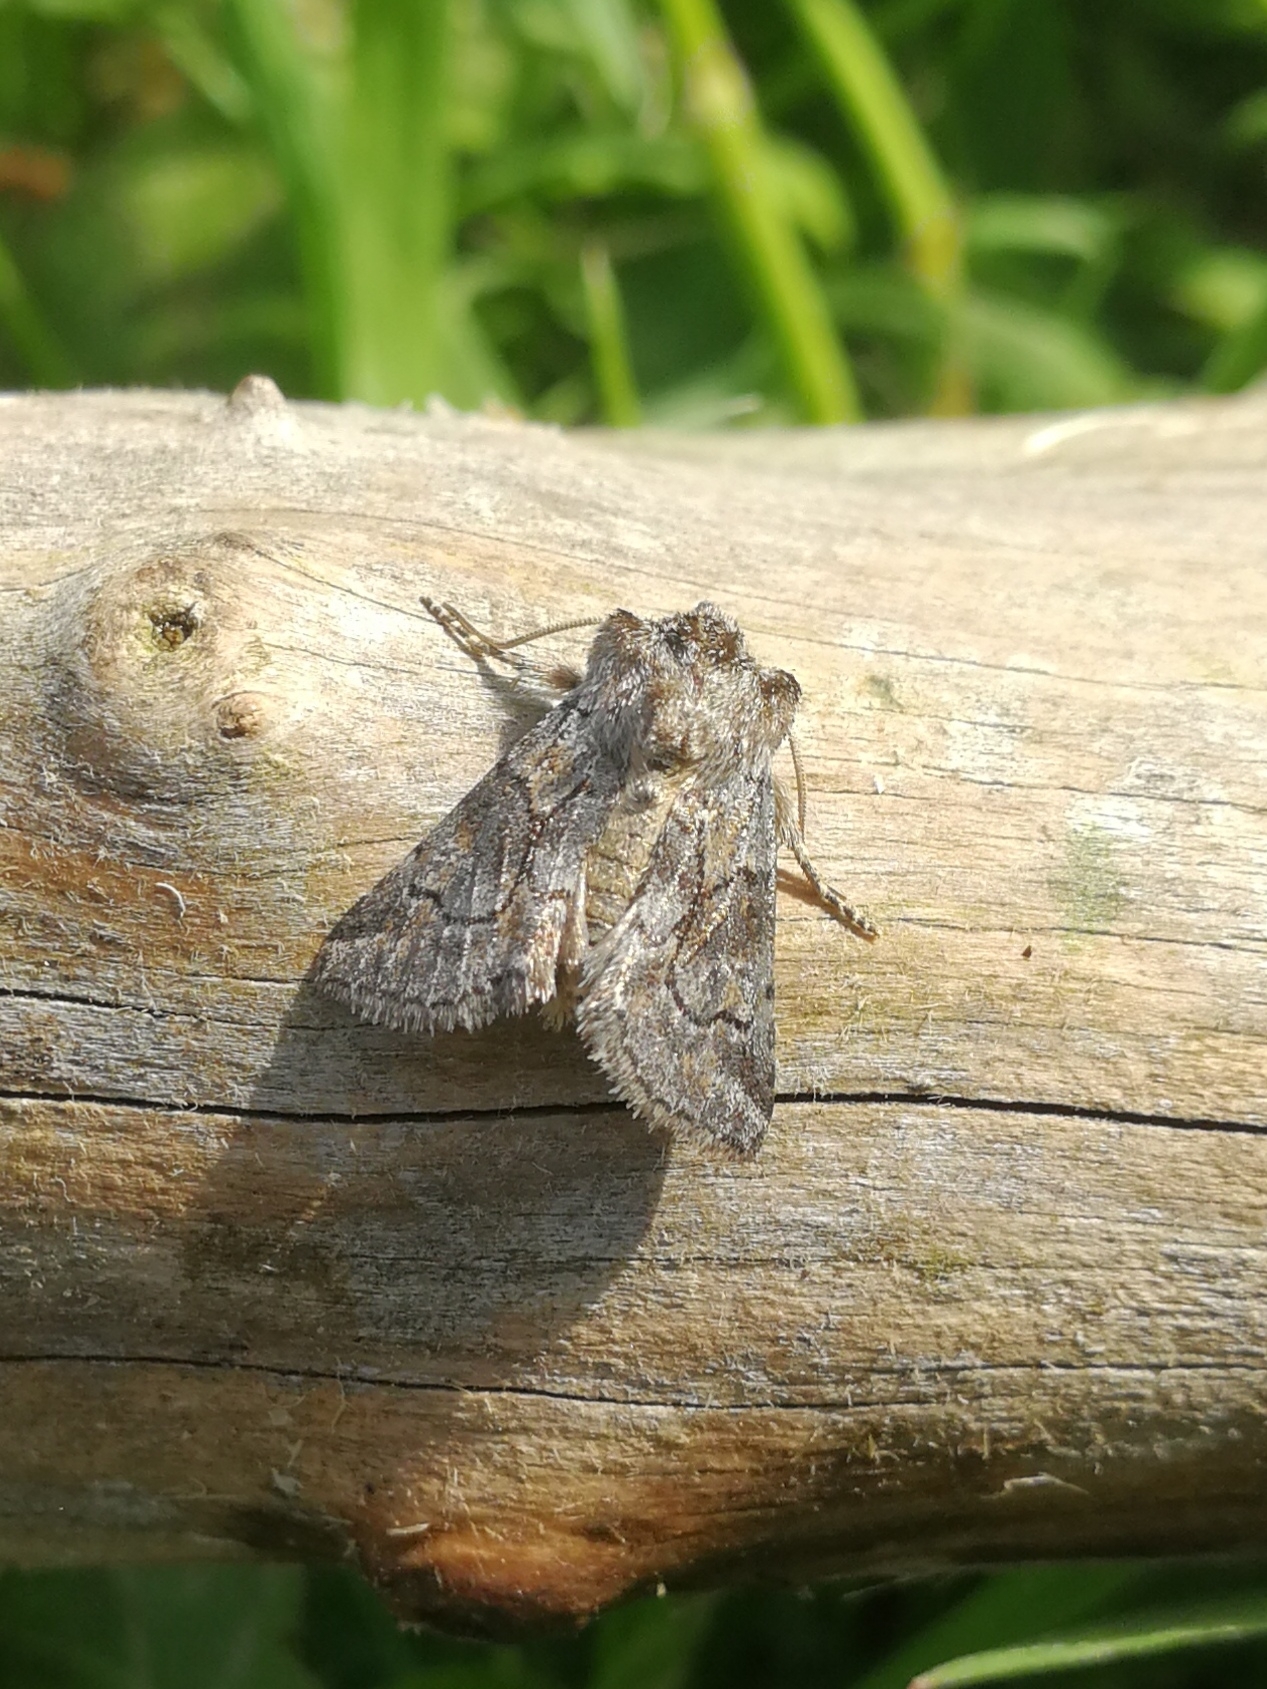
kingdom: Animalia
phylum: Arthropoda
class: Insecta
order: Lepidoptera
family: Noctuidae
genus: Cleonymia
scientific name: Cleonymia yvanii
